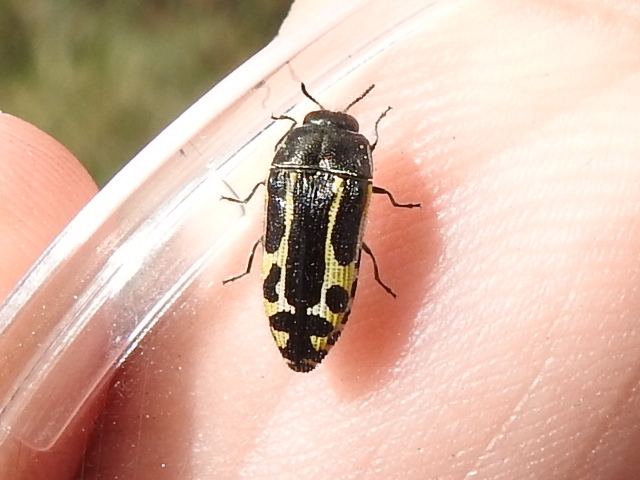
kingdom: Animalia
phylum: Arthropoda
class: Insecta
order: Coleoptera
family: Buprestidae
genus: Acmaeodera
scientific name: Acmaeodera scalaris
